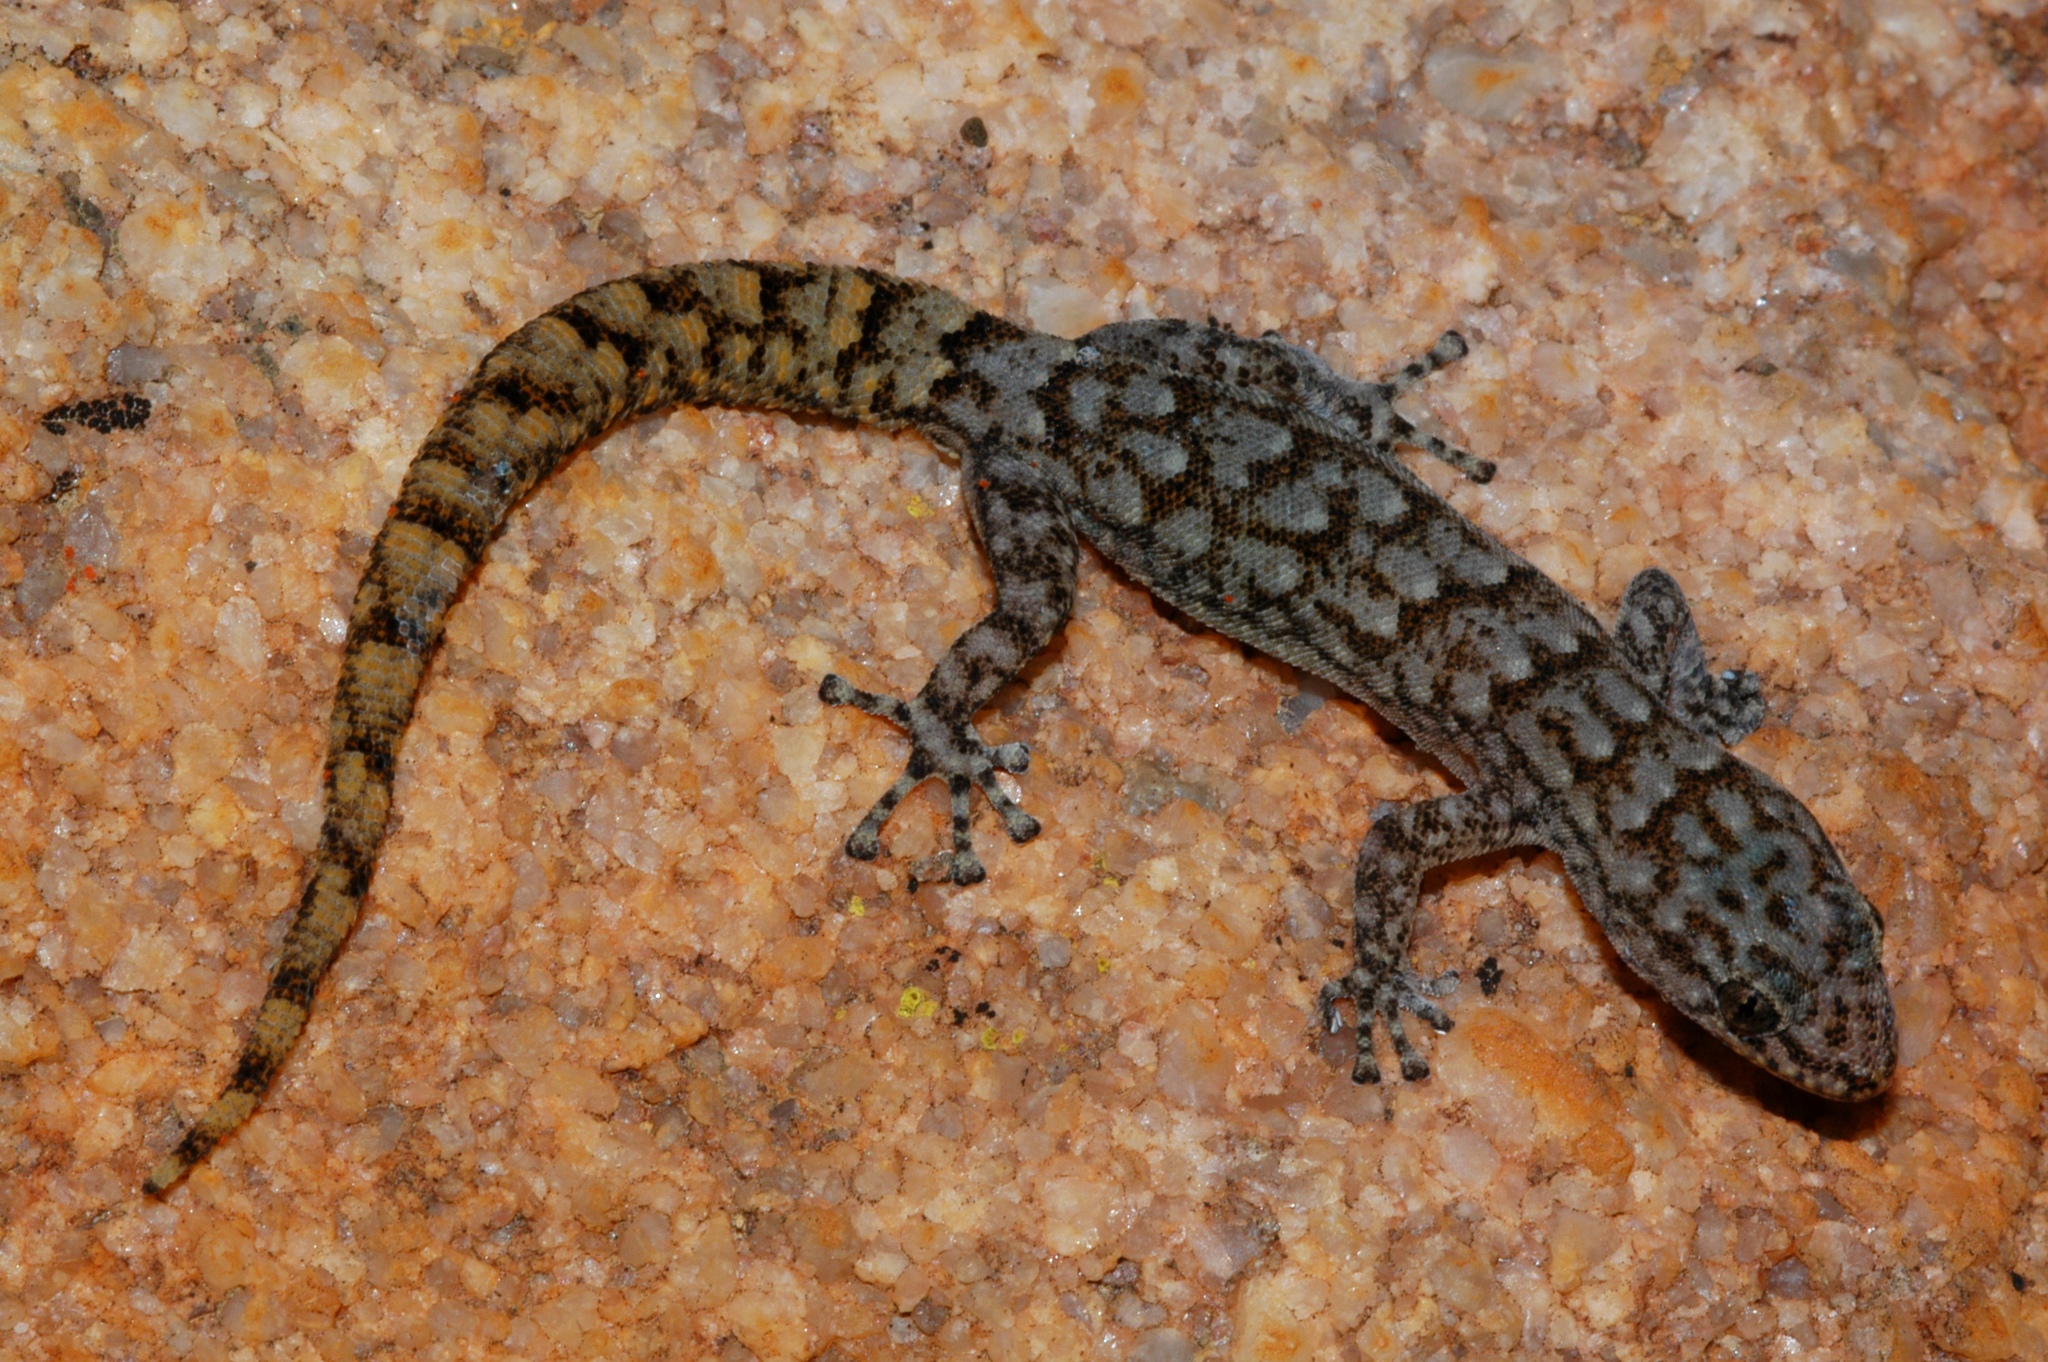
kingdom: Animalia
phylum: Chordata
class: Squamata
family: Gekkonidae
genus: Goggia
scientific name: Goggia hexapora
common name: Cedarberg dwarf leaf-toed gecko
